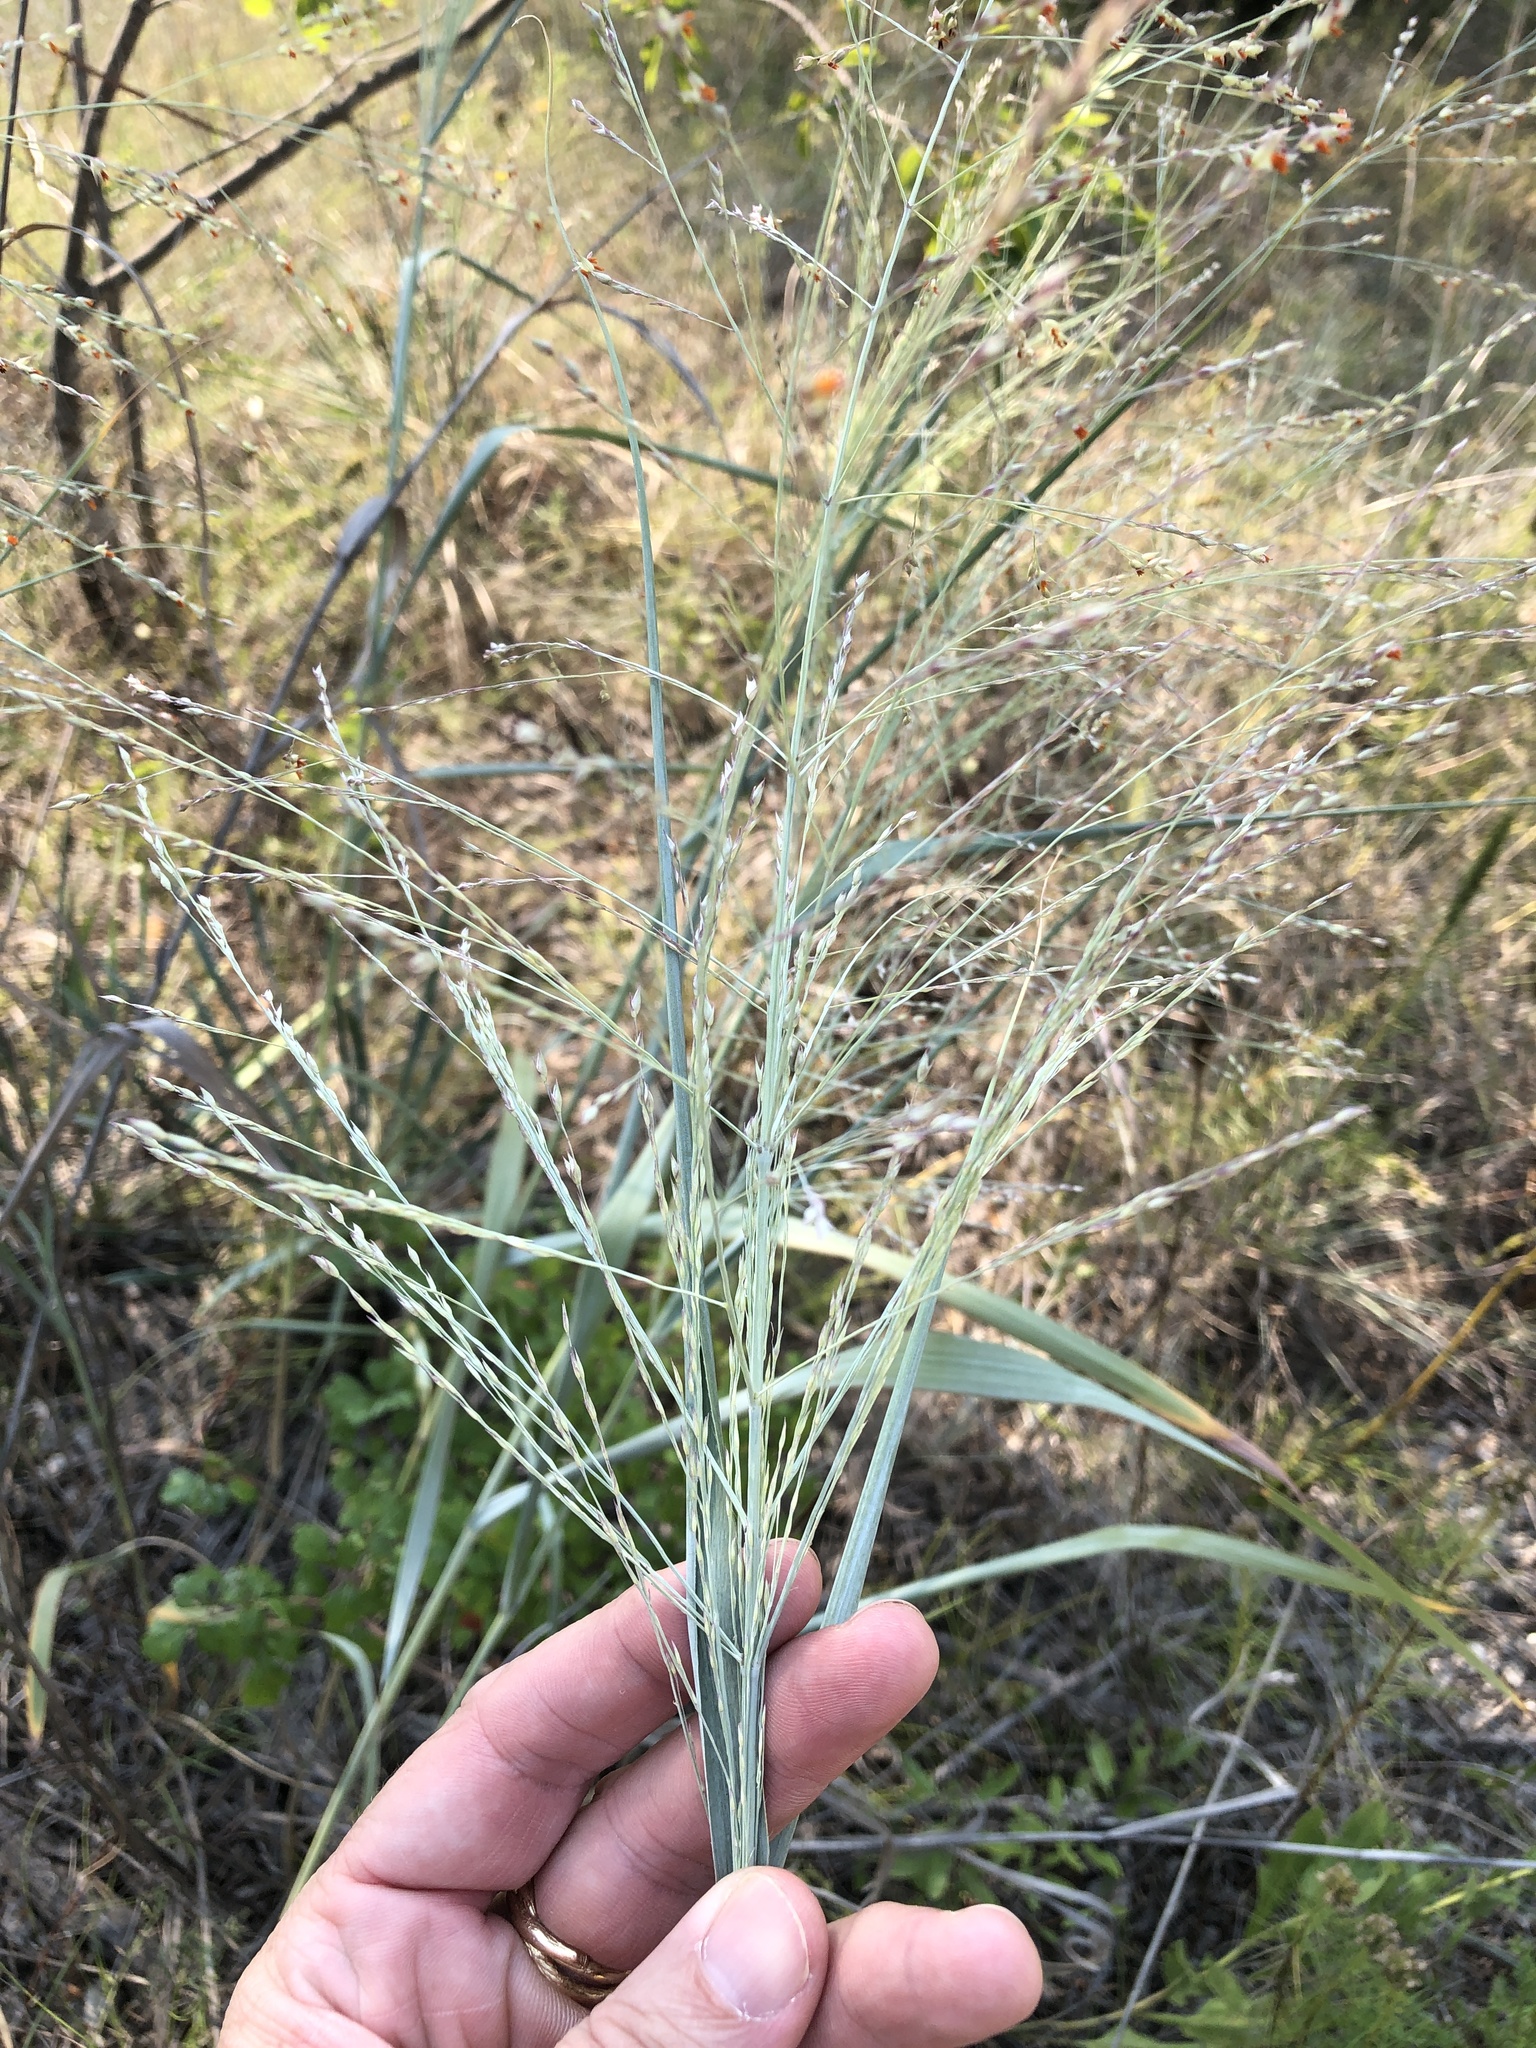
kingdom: Plantae
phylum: Tracheophyta
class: Liliopsida
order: Poales
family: Poaceae
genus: Panicum
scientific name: Panicum virgatum
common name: Switchgrass
